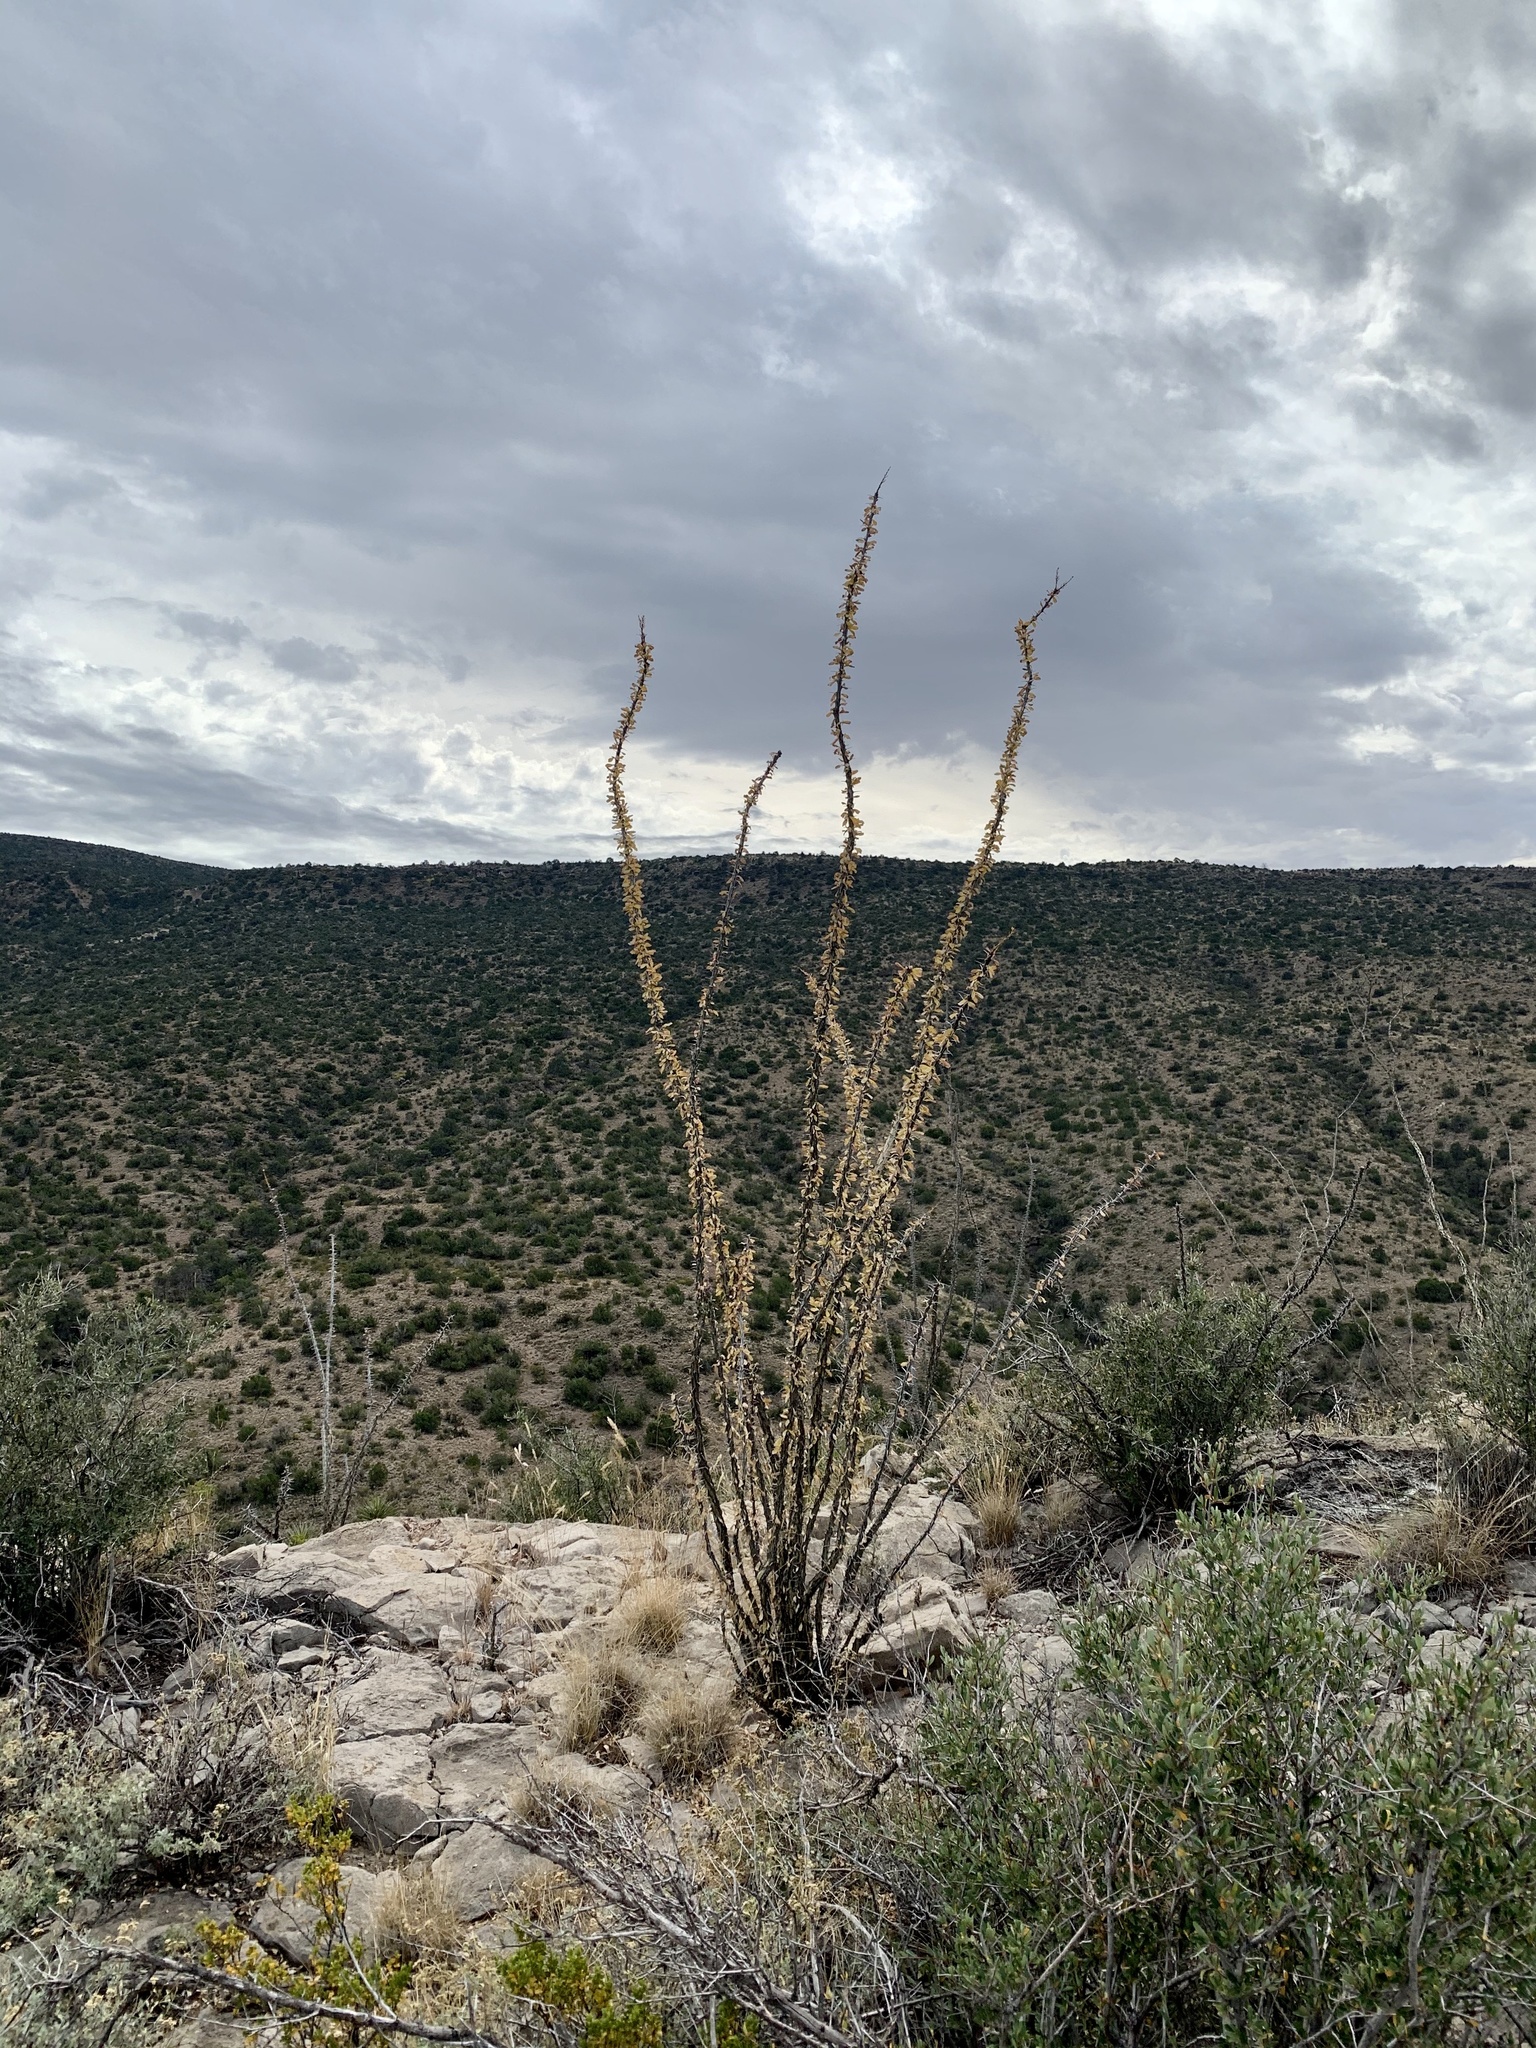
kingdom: Plantae
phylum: Tracheophyta
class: Magnoliopsida
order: Ericales
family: Fouquieriaceae
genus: Fouquieria
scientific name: Fouquieria splendens
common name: Vine-cactus
